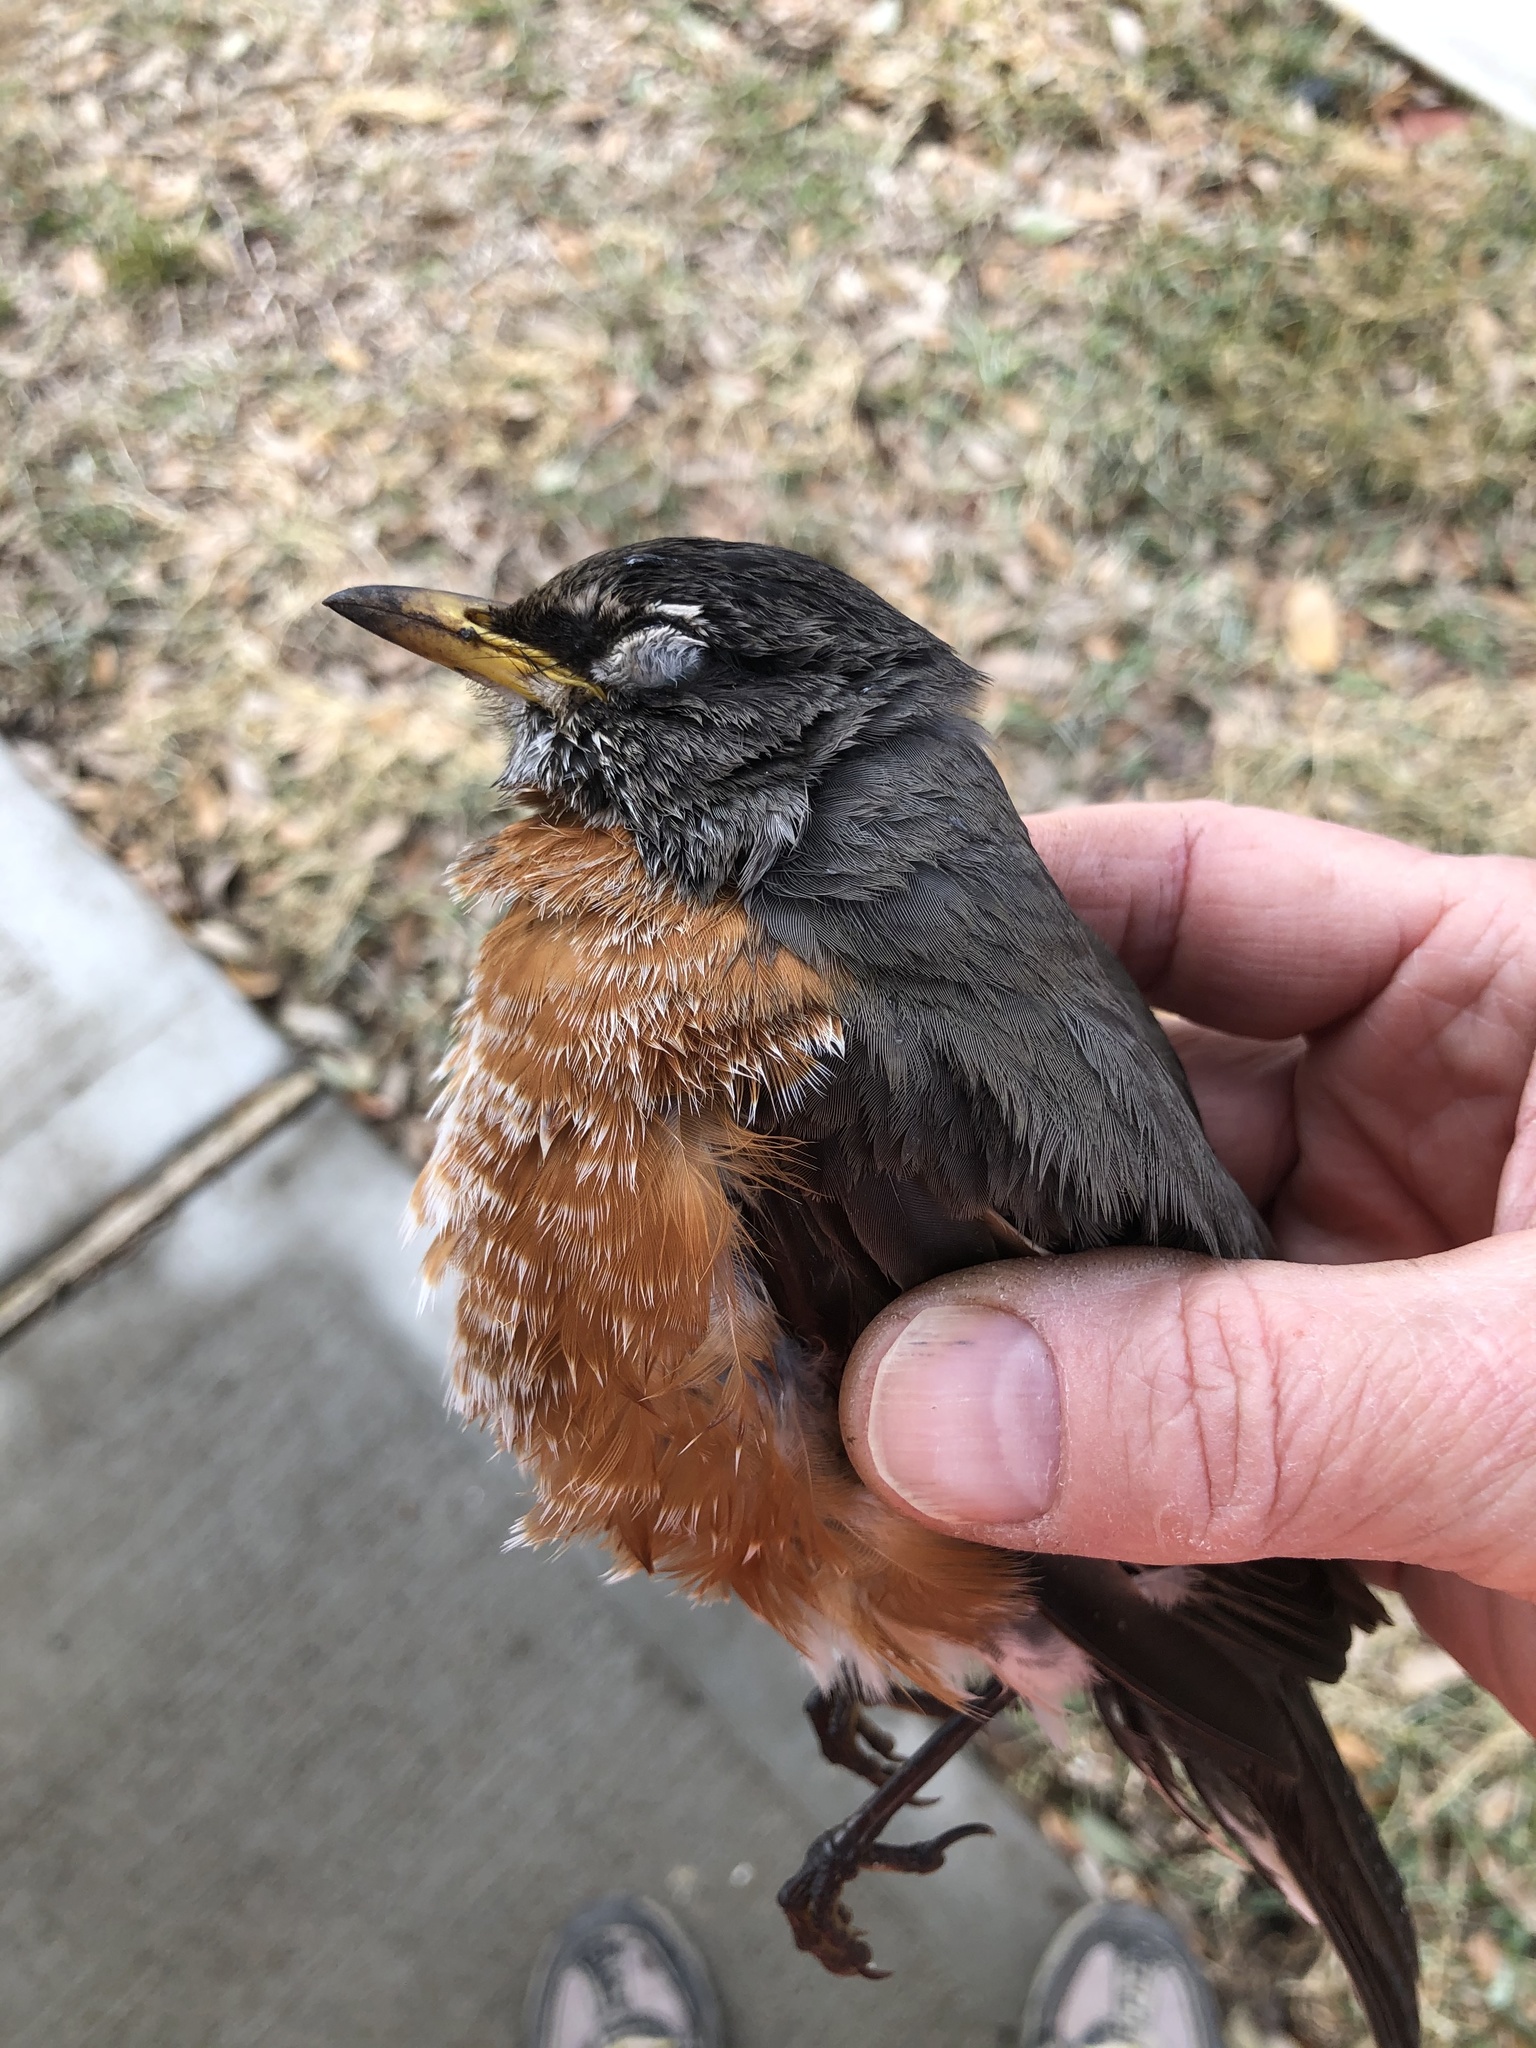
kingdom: Animalia
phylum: Chordata
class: Aves
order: Passeriformes
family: Turdidae
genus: Turdus
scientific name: Turdus migratorius
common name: American robin
